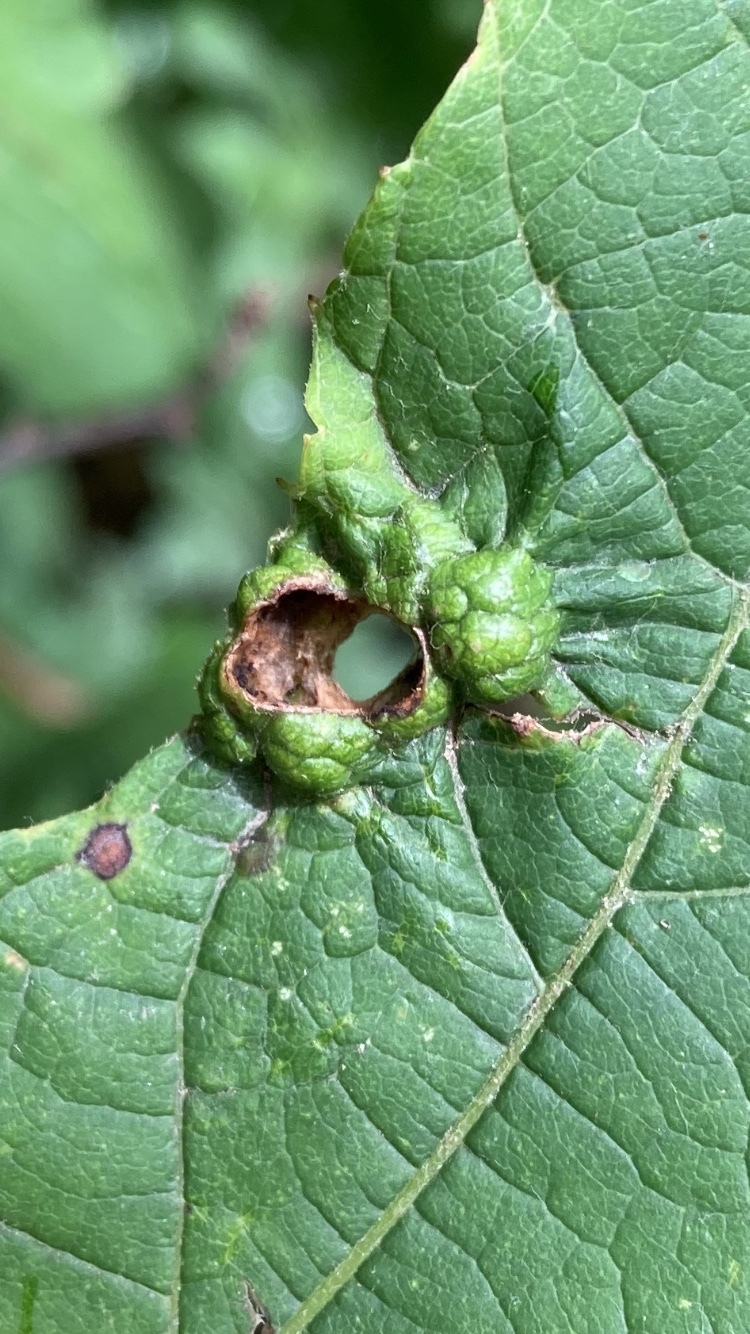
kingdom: Animalia
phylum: Arthropoda
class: Insecta
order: Lepidoptera
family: Heliozelidae
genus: Heliozela
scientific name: Heliozela aesella
